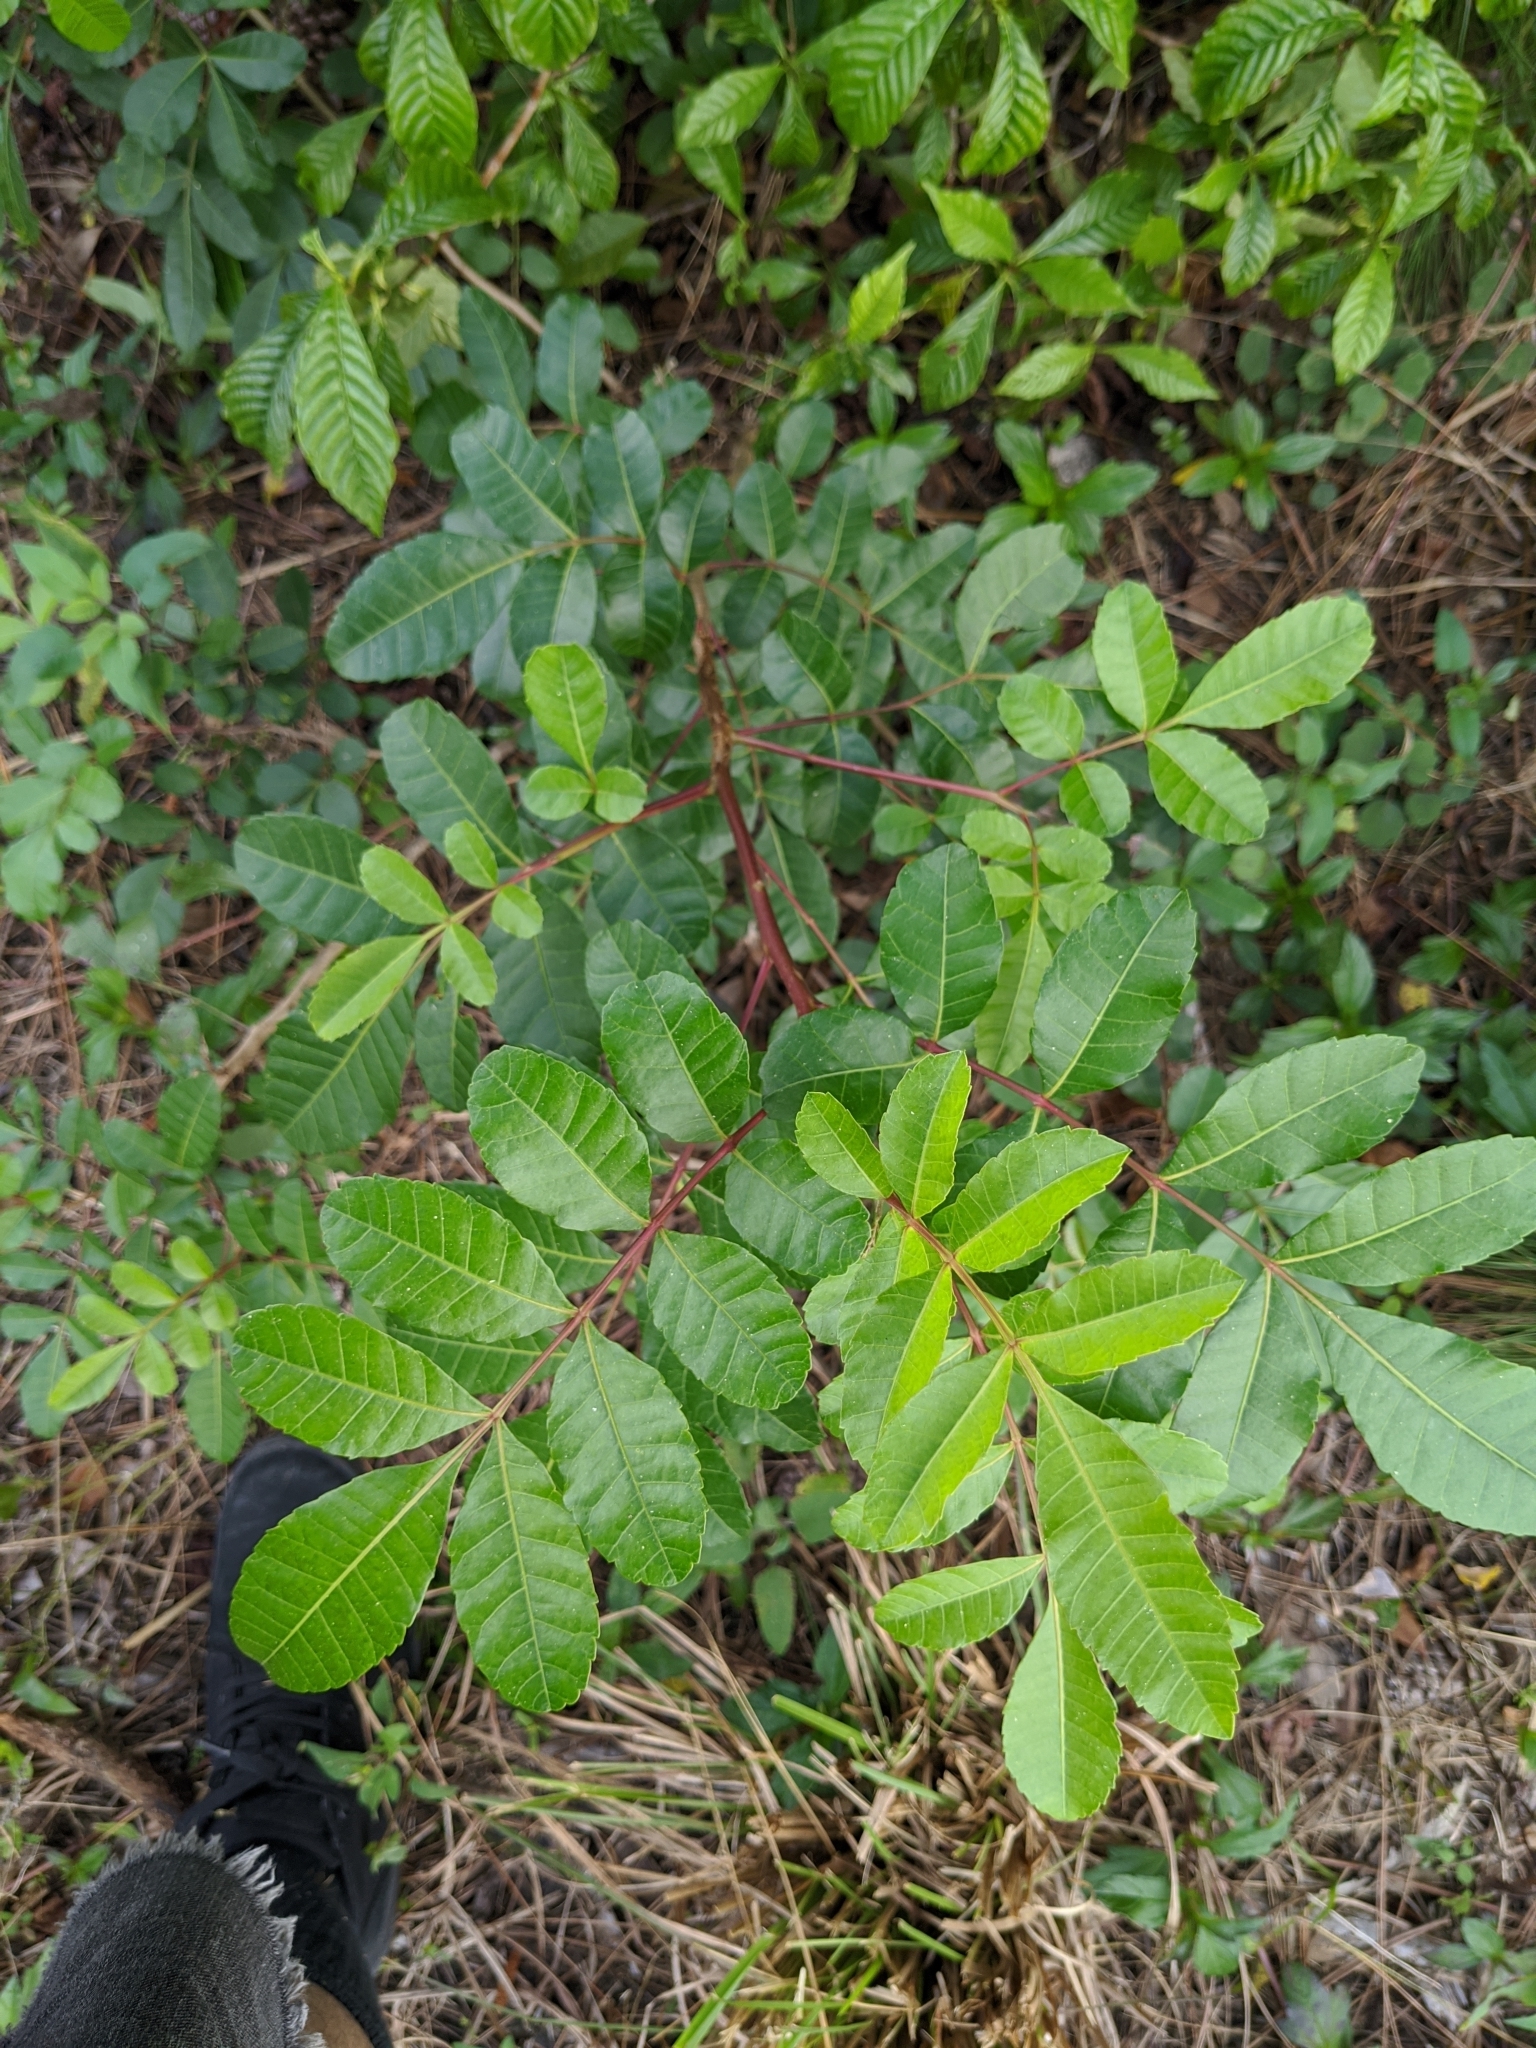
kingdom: Plantae
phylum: Tracheophyta
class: Magnoliopsida
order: Sapindales
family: Anacardiaceae
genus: Schinus
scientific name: Schinus terebinthifolia
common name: Brazilian peppertree
